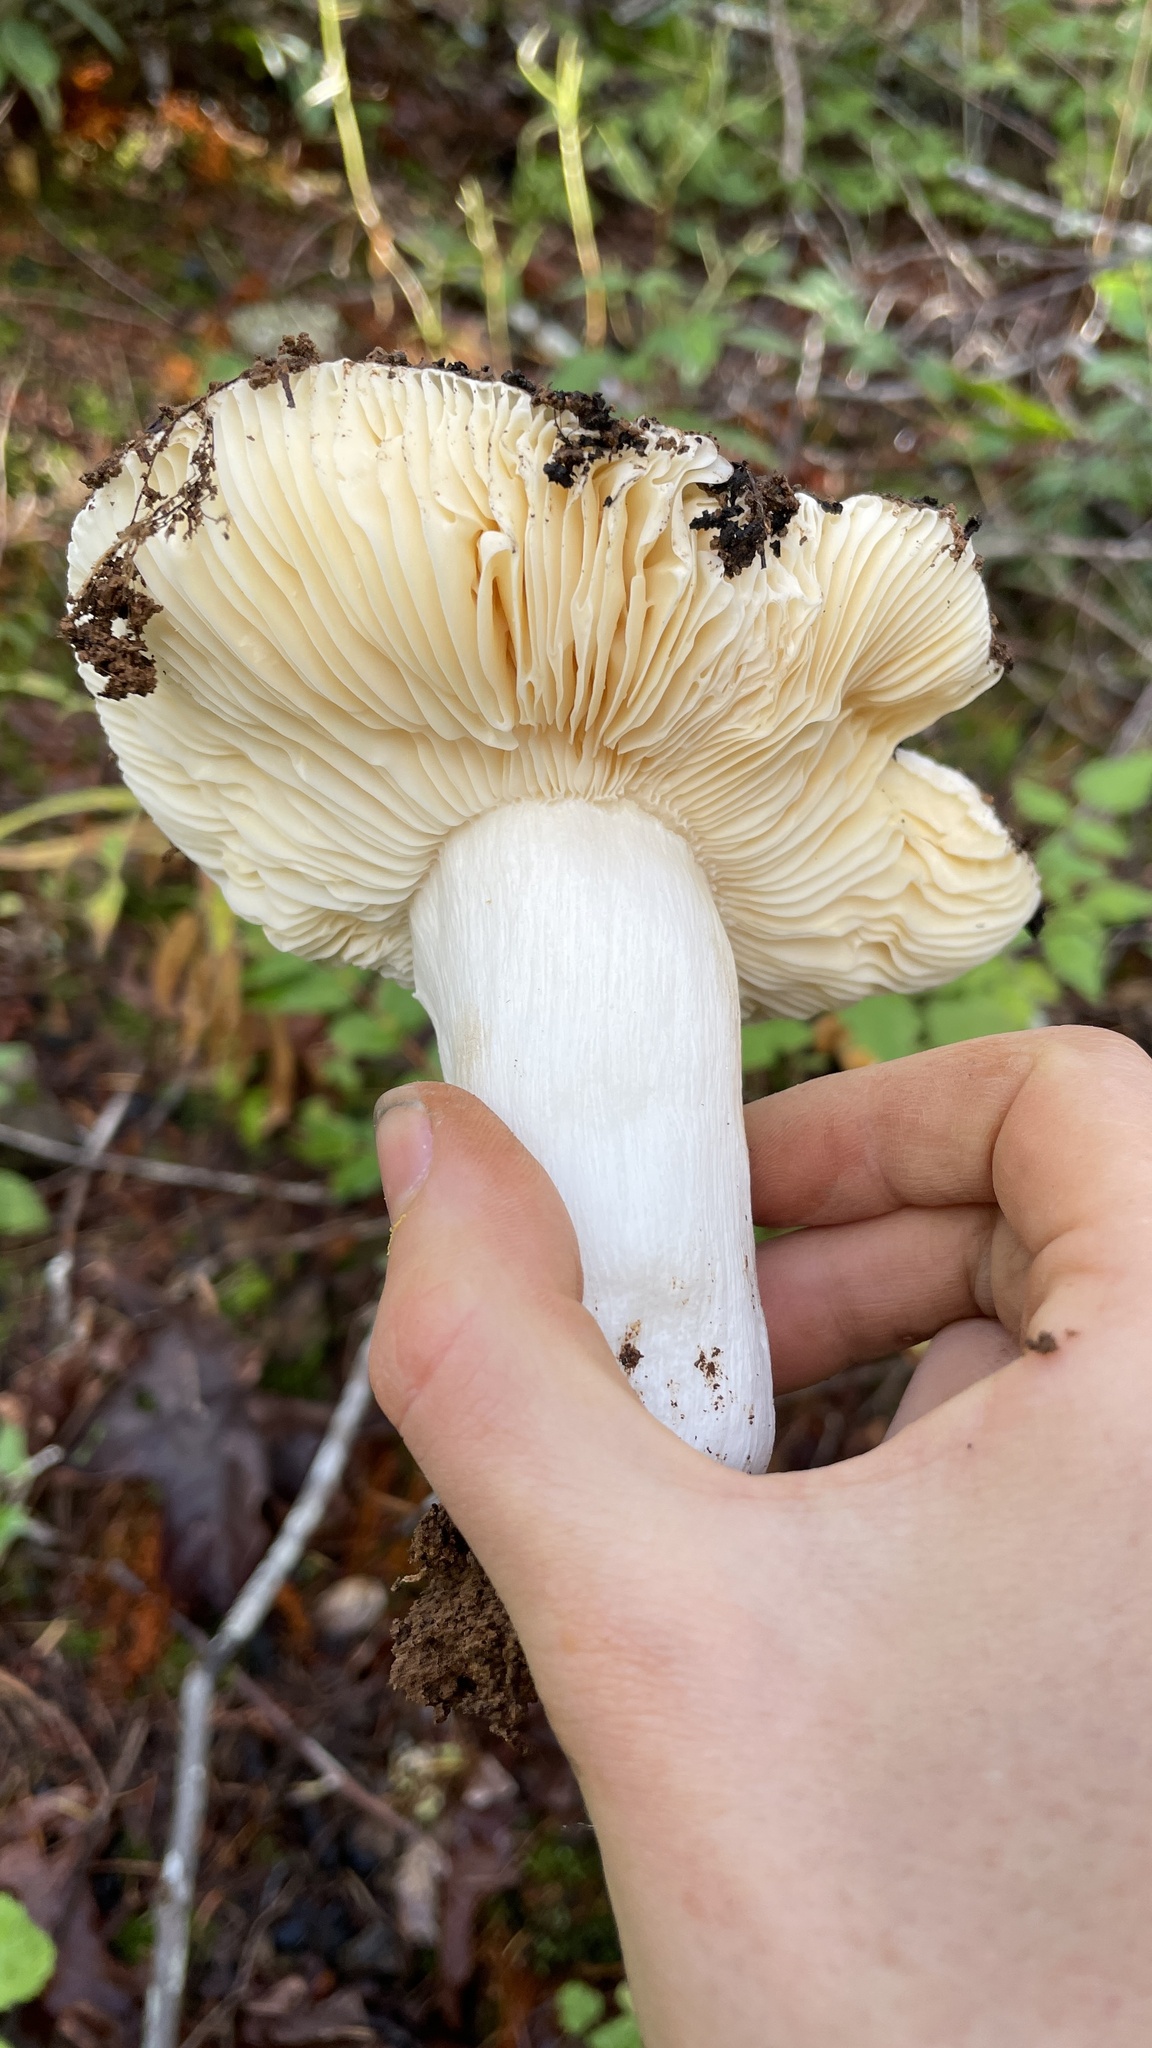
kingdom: Fungi
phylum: Basidiomycota
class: Agaricomycetes
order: Russulales
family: Russulaceae
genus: Russula
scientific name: Russula obscurozelleri
